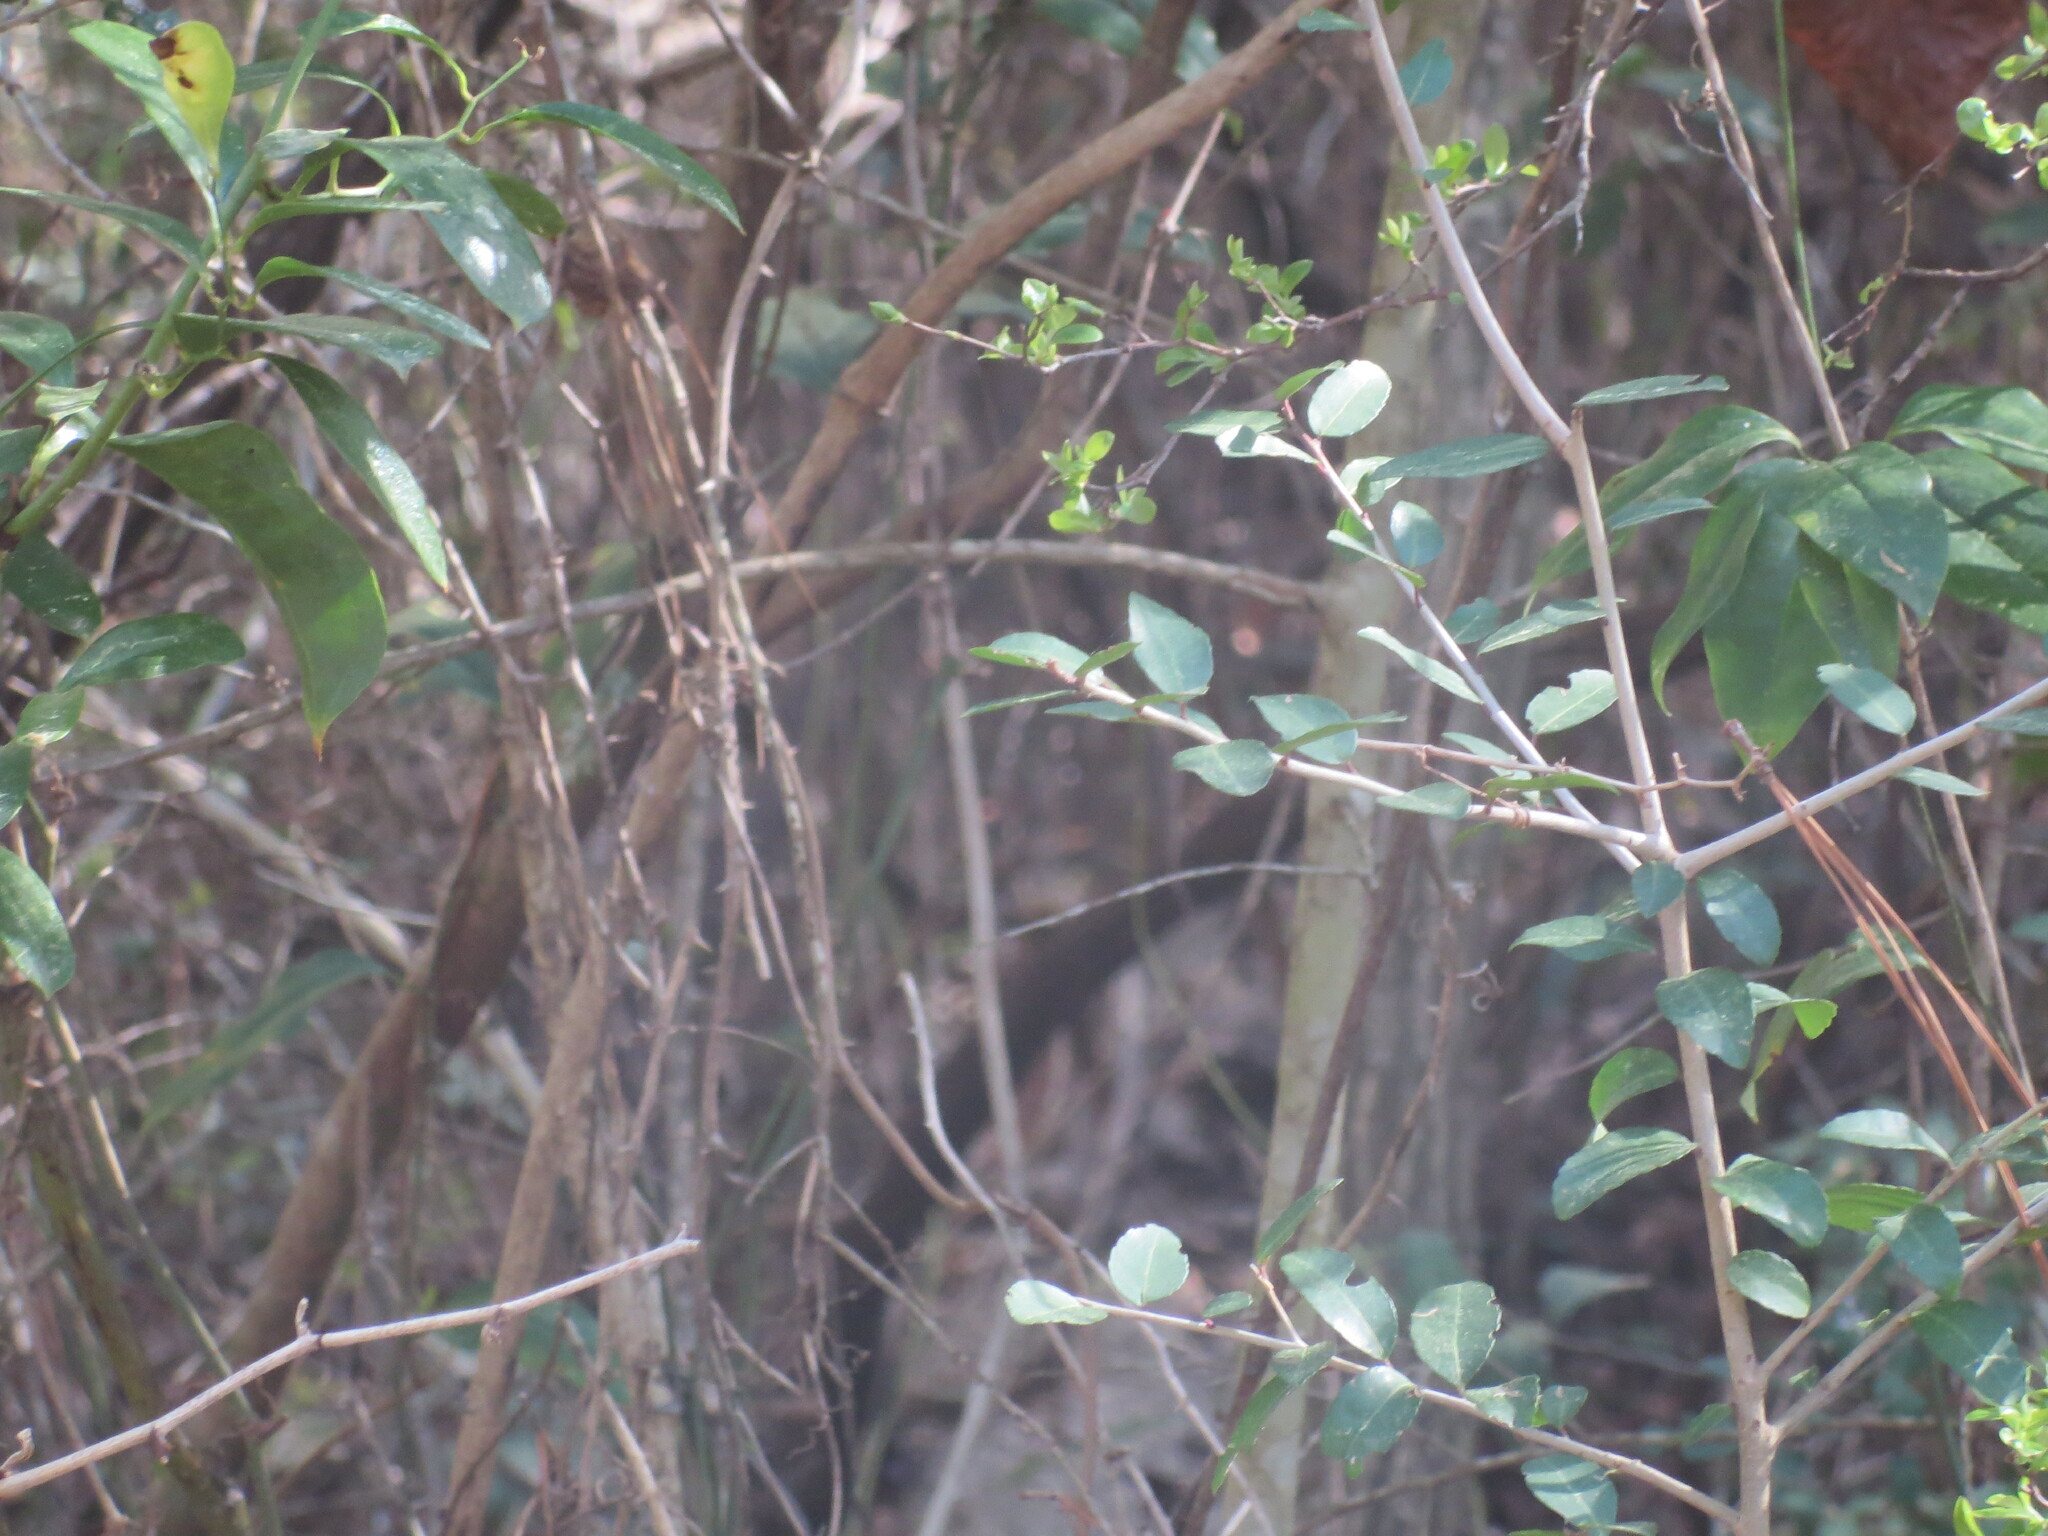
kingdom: Plantae
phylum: Tracheophyta
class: Magnoliopsida
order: Aquifoliales
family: Aquifoliaceae
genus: Ilex
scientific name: Ilex vomitoria
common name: Yaupon holly
